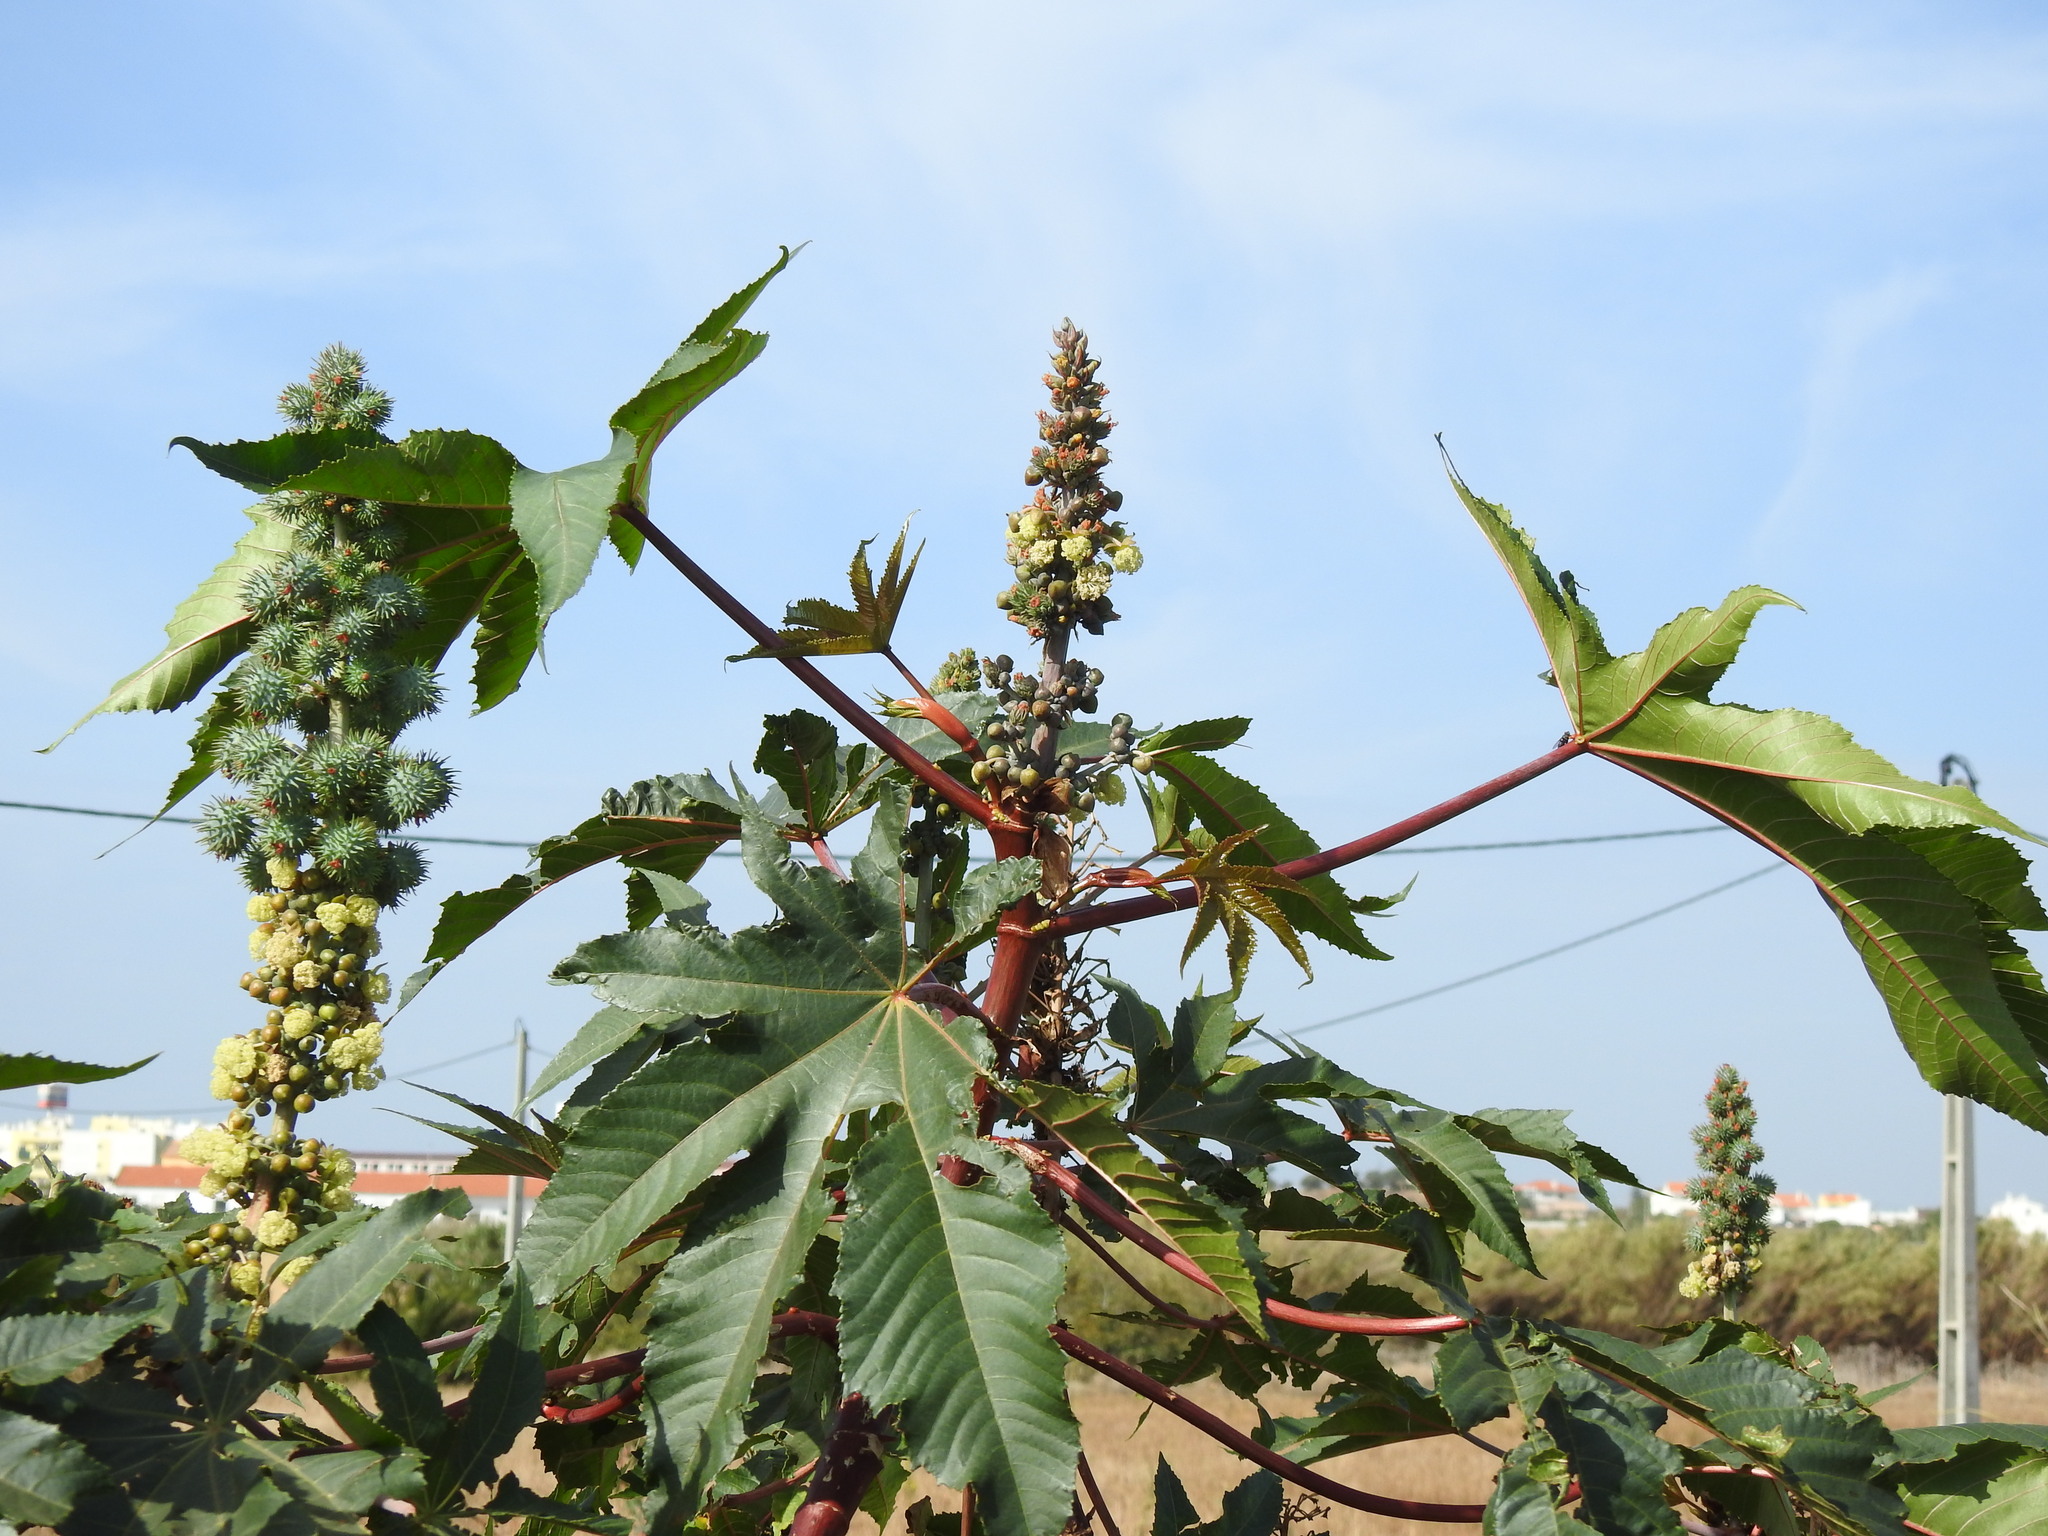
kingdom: Plantae
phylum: Tracheophyta
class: Magnoliopsida
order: Malpighiales
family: Euphorbiaceae
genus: Ricinus
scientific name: Ricinus communis
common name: Castor-oil-plant
